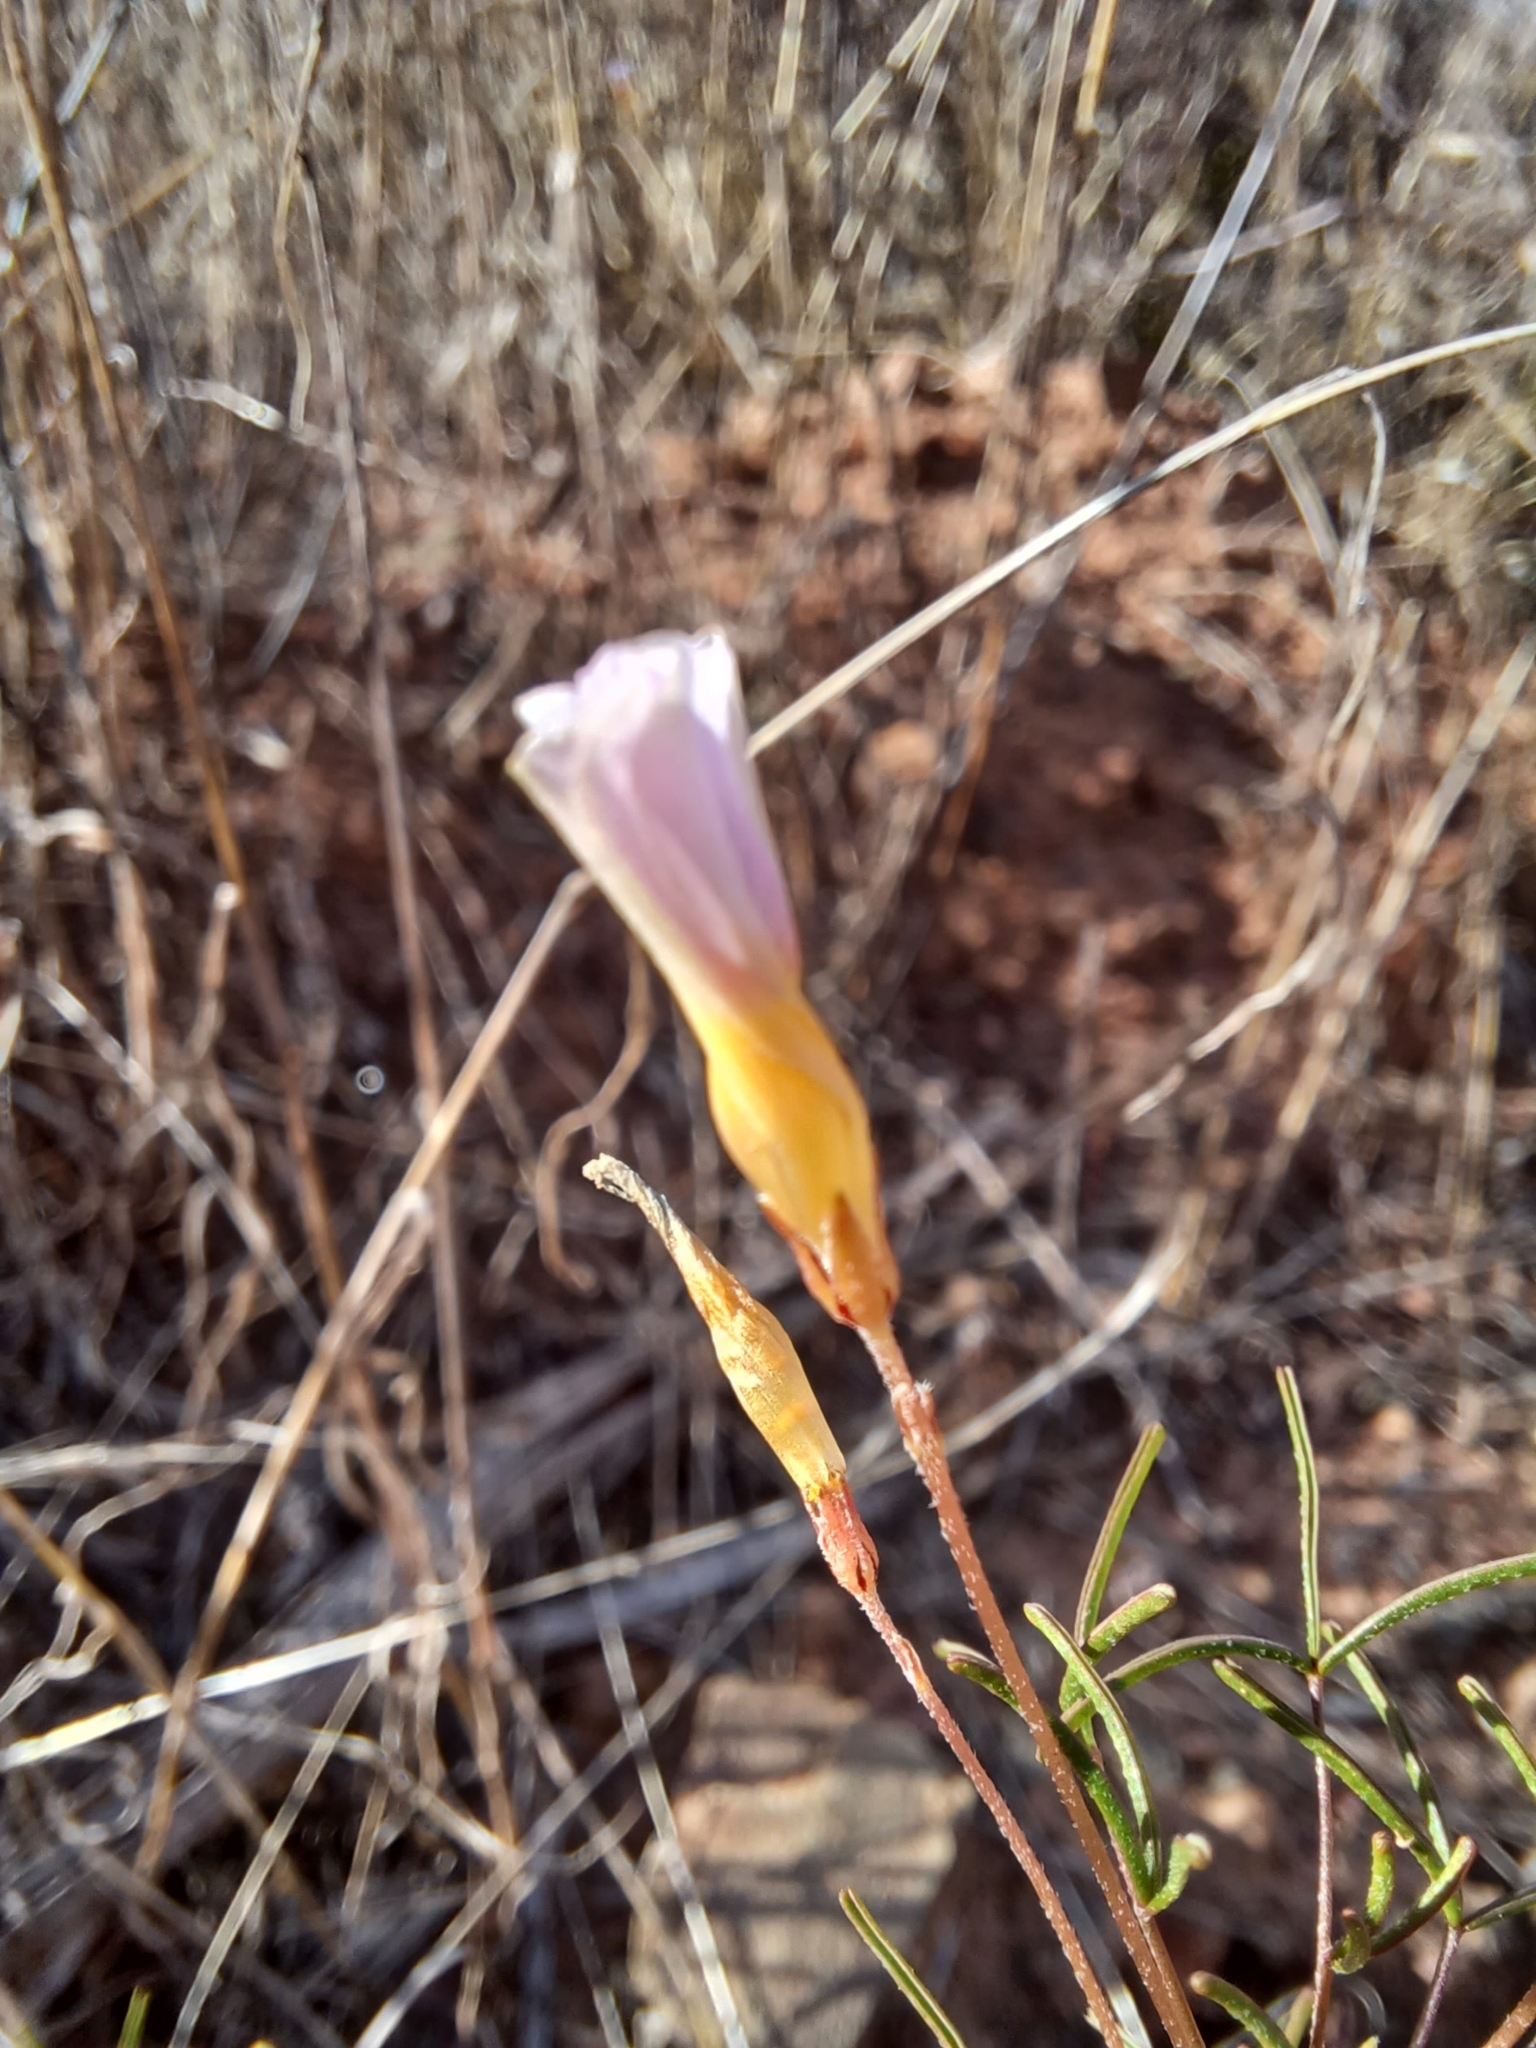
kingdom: Plantae
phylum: Tracheophyta
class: Magnoliopsida
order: Oxalidales
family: Oxalidaceae
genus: Oxalis
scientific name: Oxalis burkei
